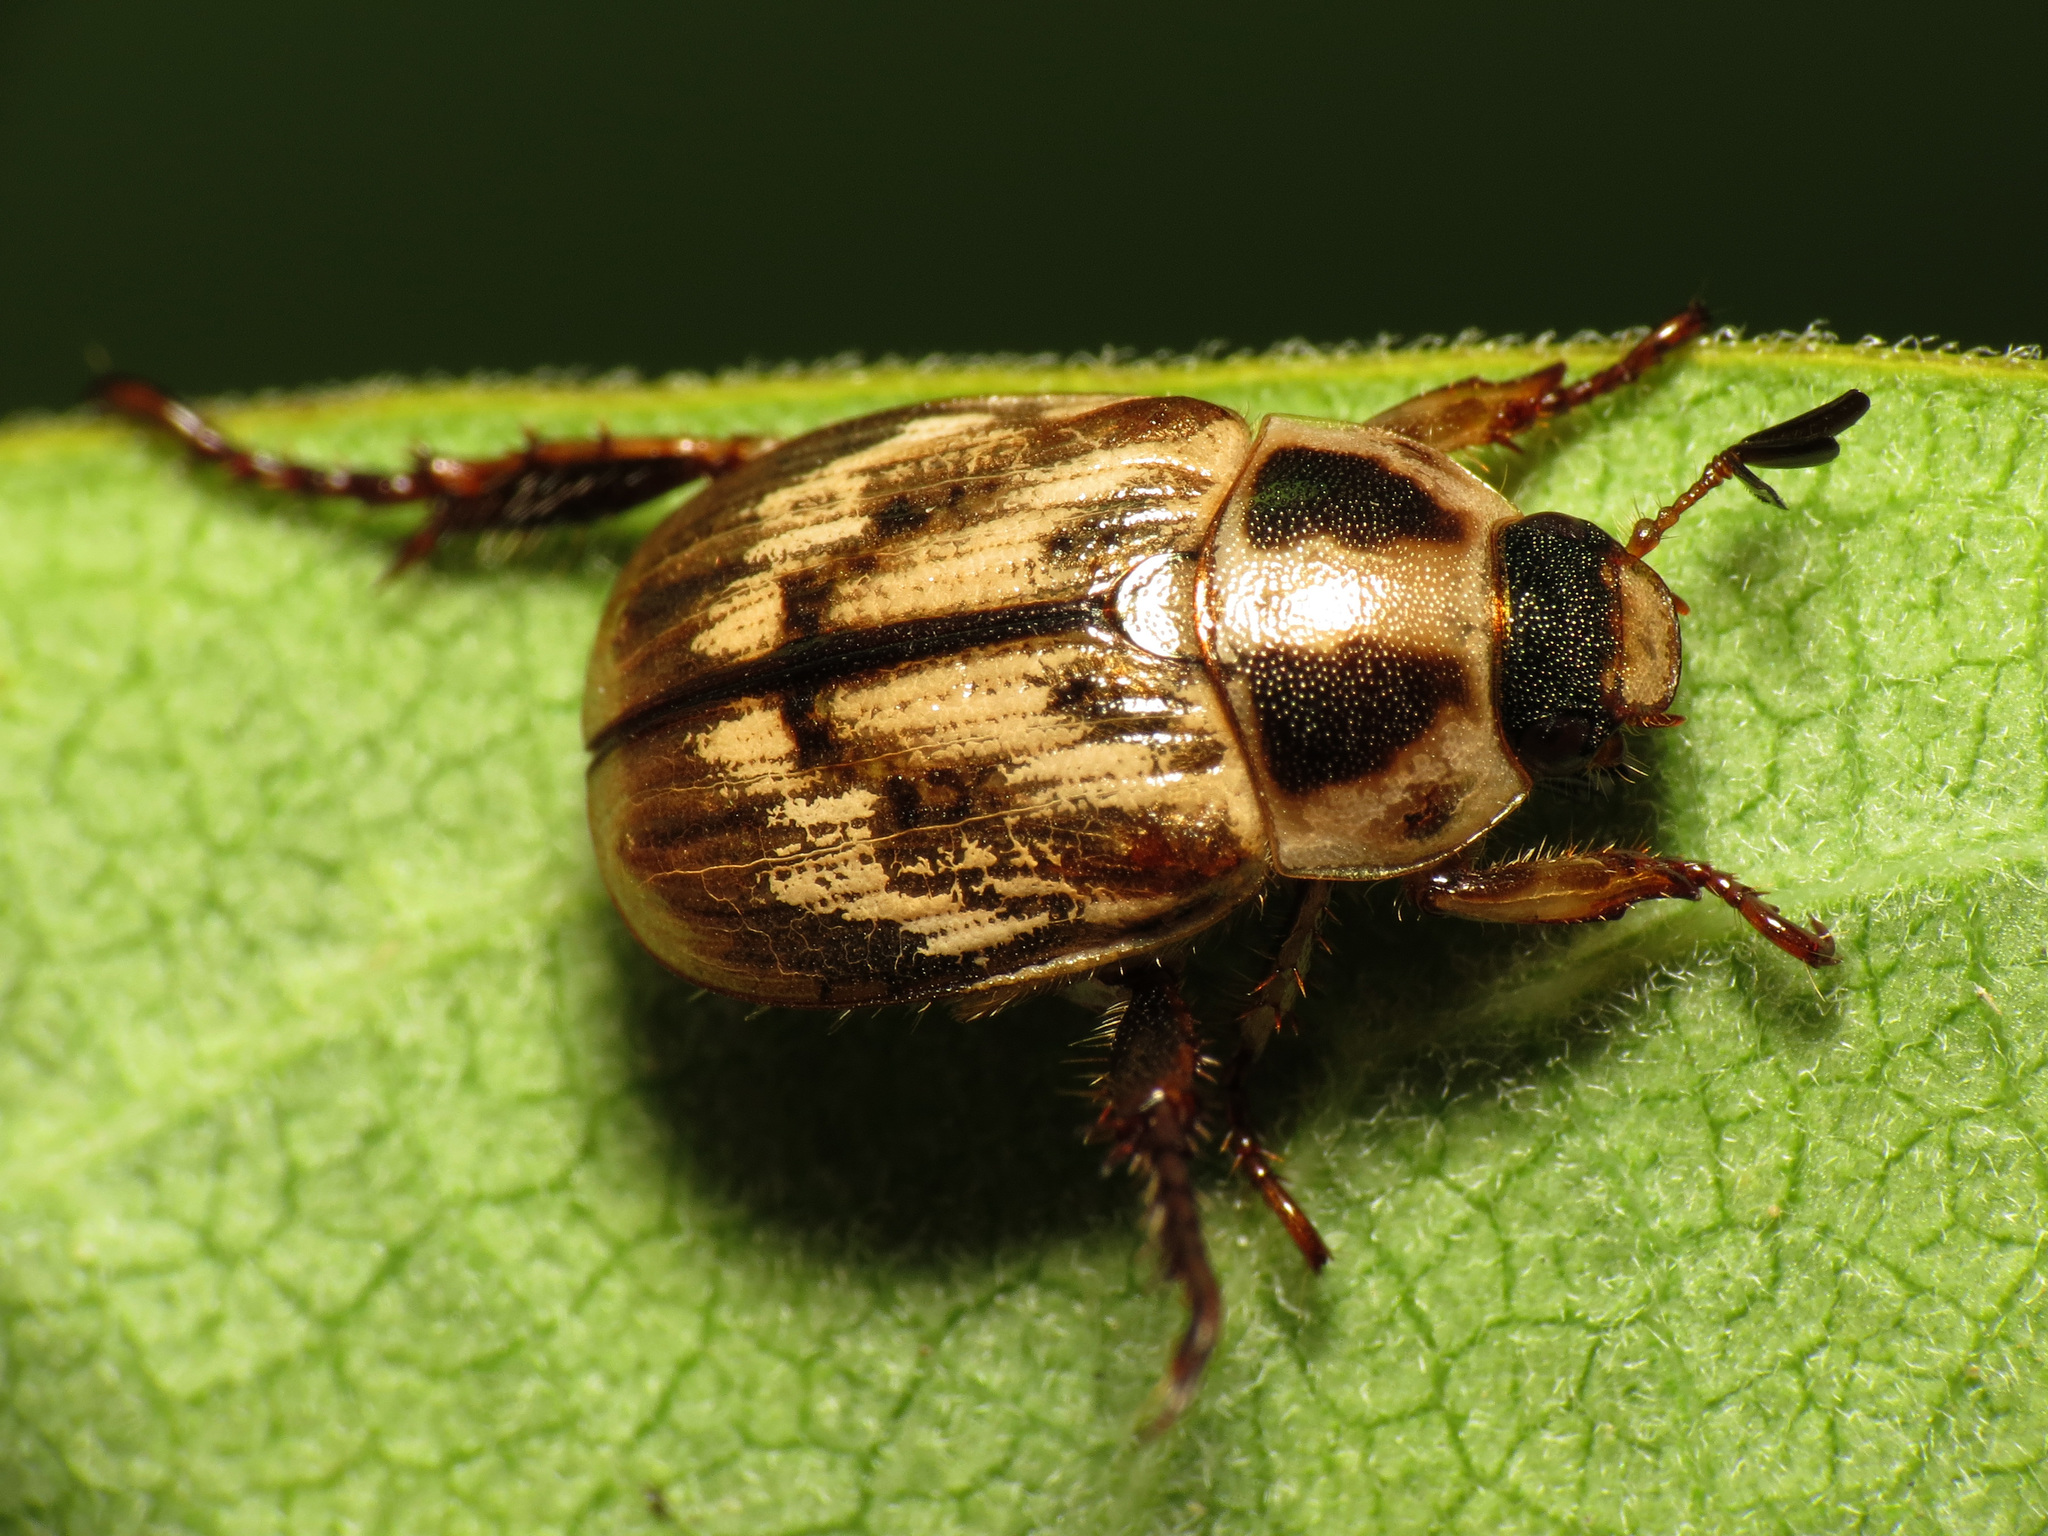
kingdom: Animalia
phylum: Arthropoda
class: Insecta
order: Coleoptera
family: Scarabaeidae
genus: Exomala
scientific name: Exomala orientalis
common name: Oriental beetle
